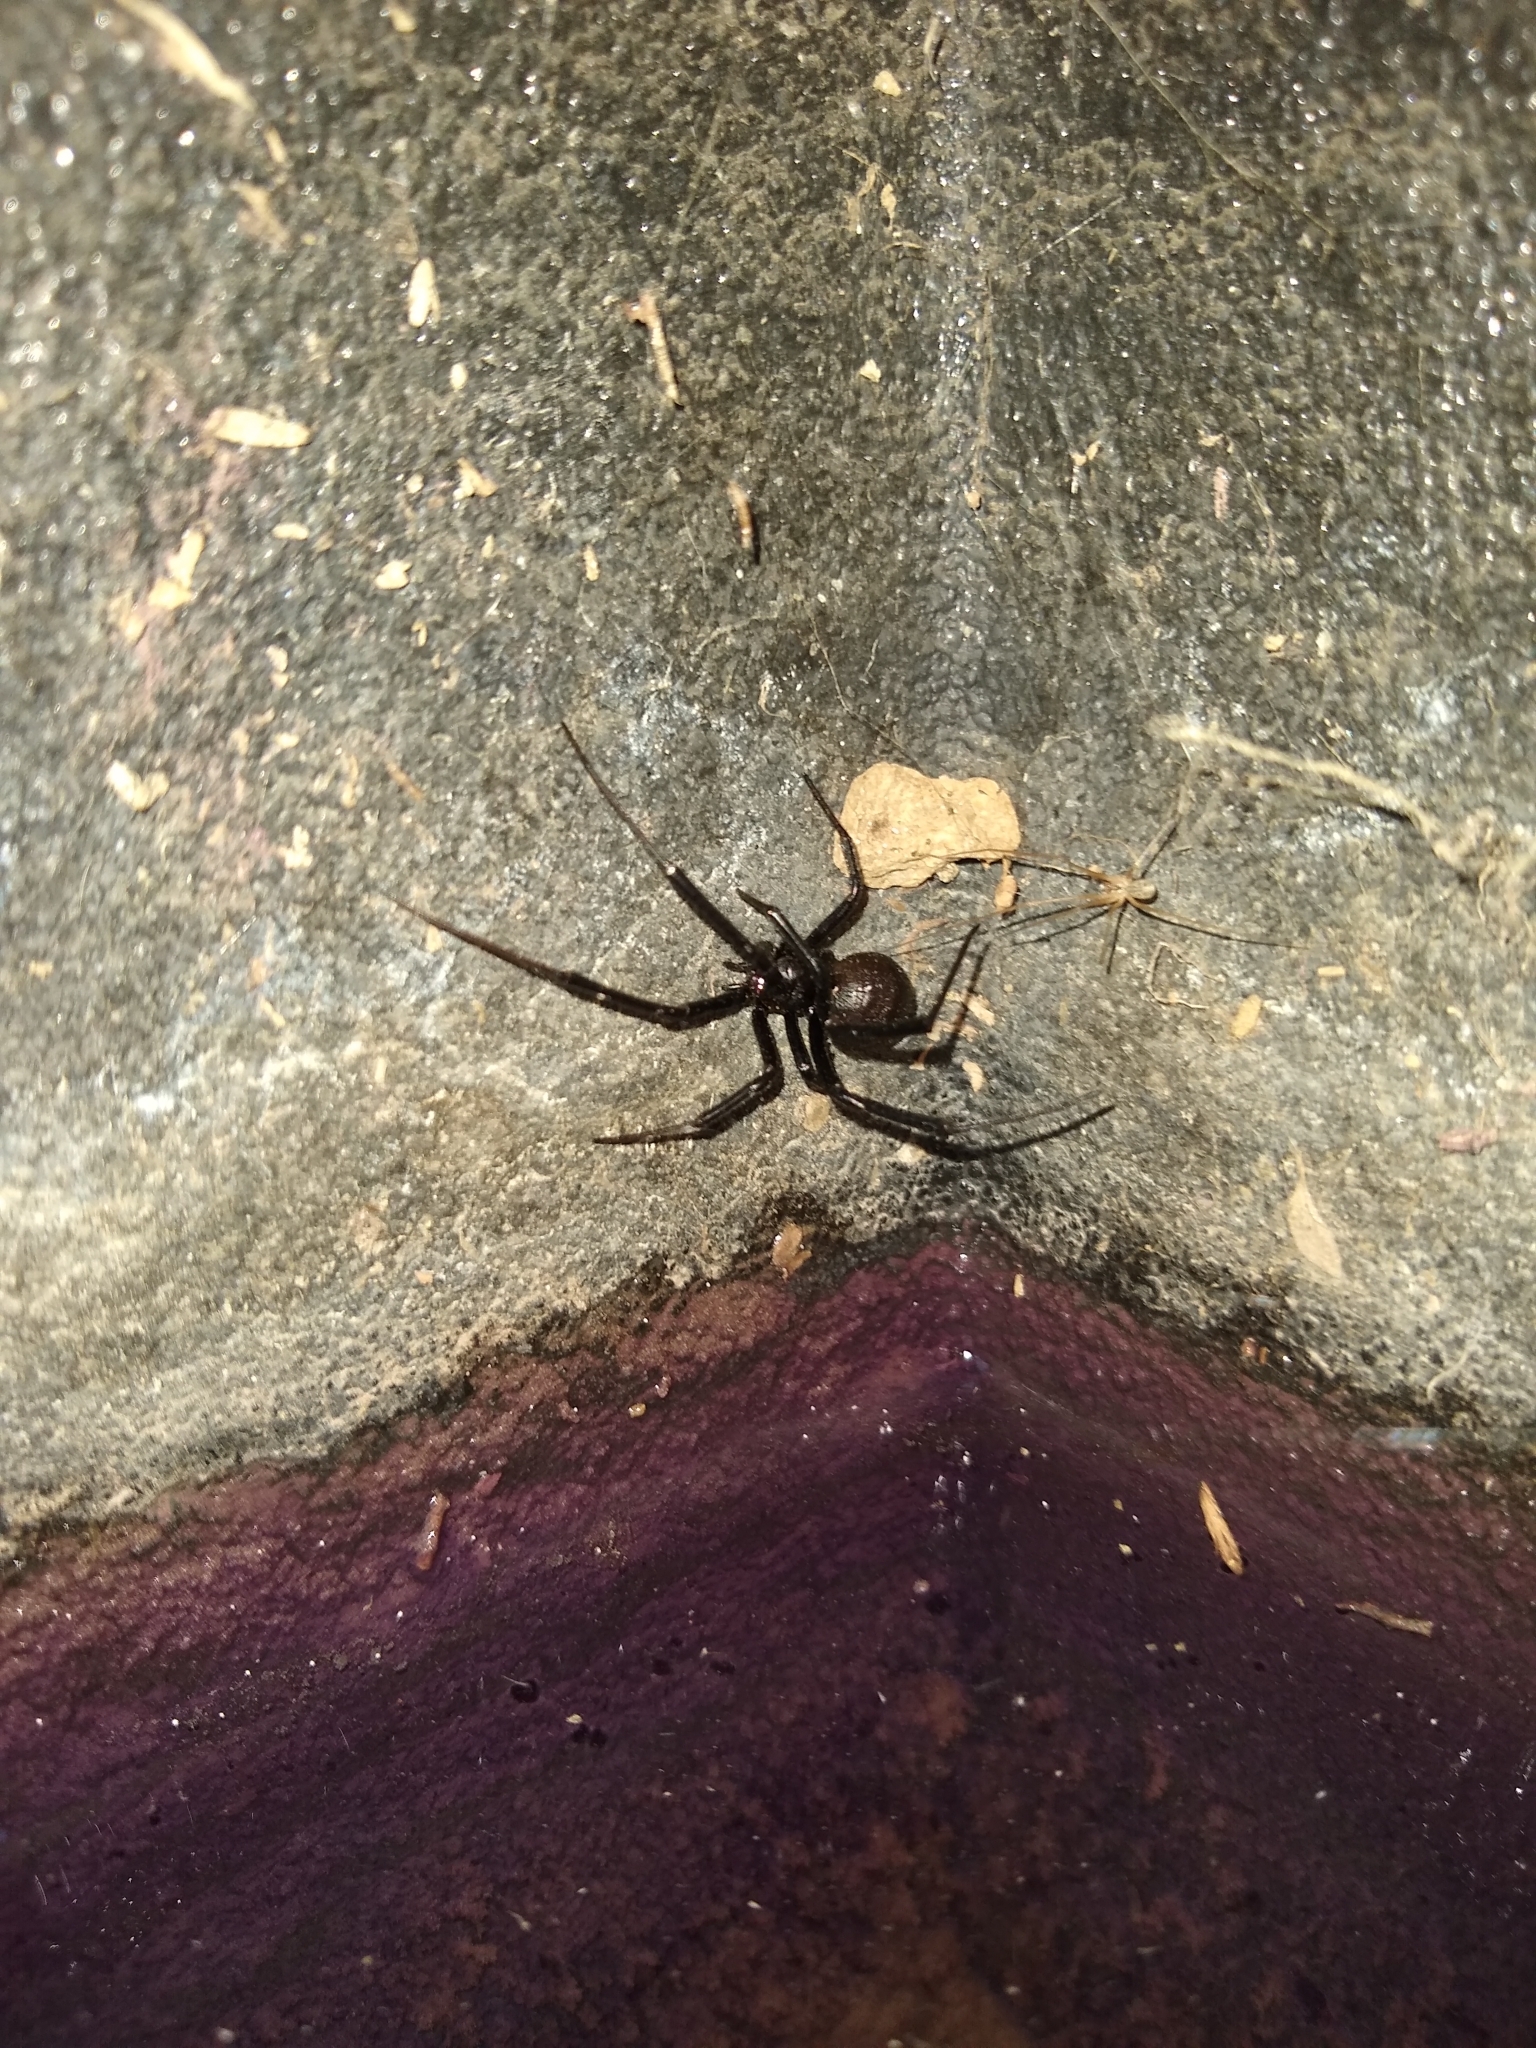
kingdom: Animalia
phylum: Arthropoda
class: Arachnida
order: Araneae
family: Theridiidae
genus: Latrodectus
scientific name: Latrodectus hesperus
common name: Western black widow
